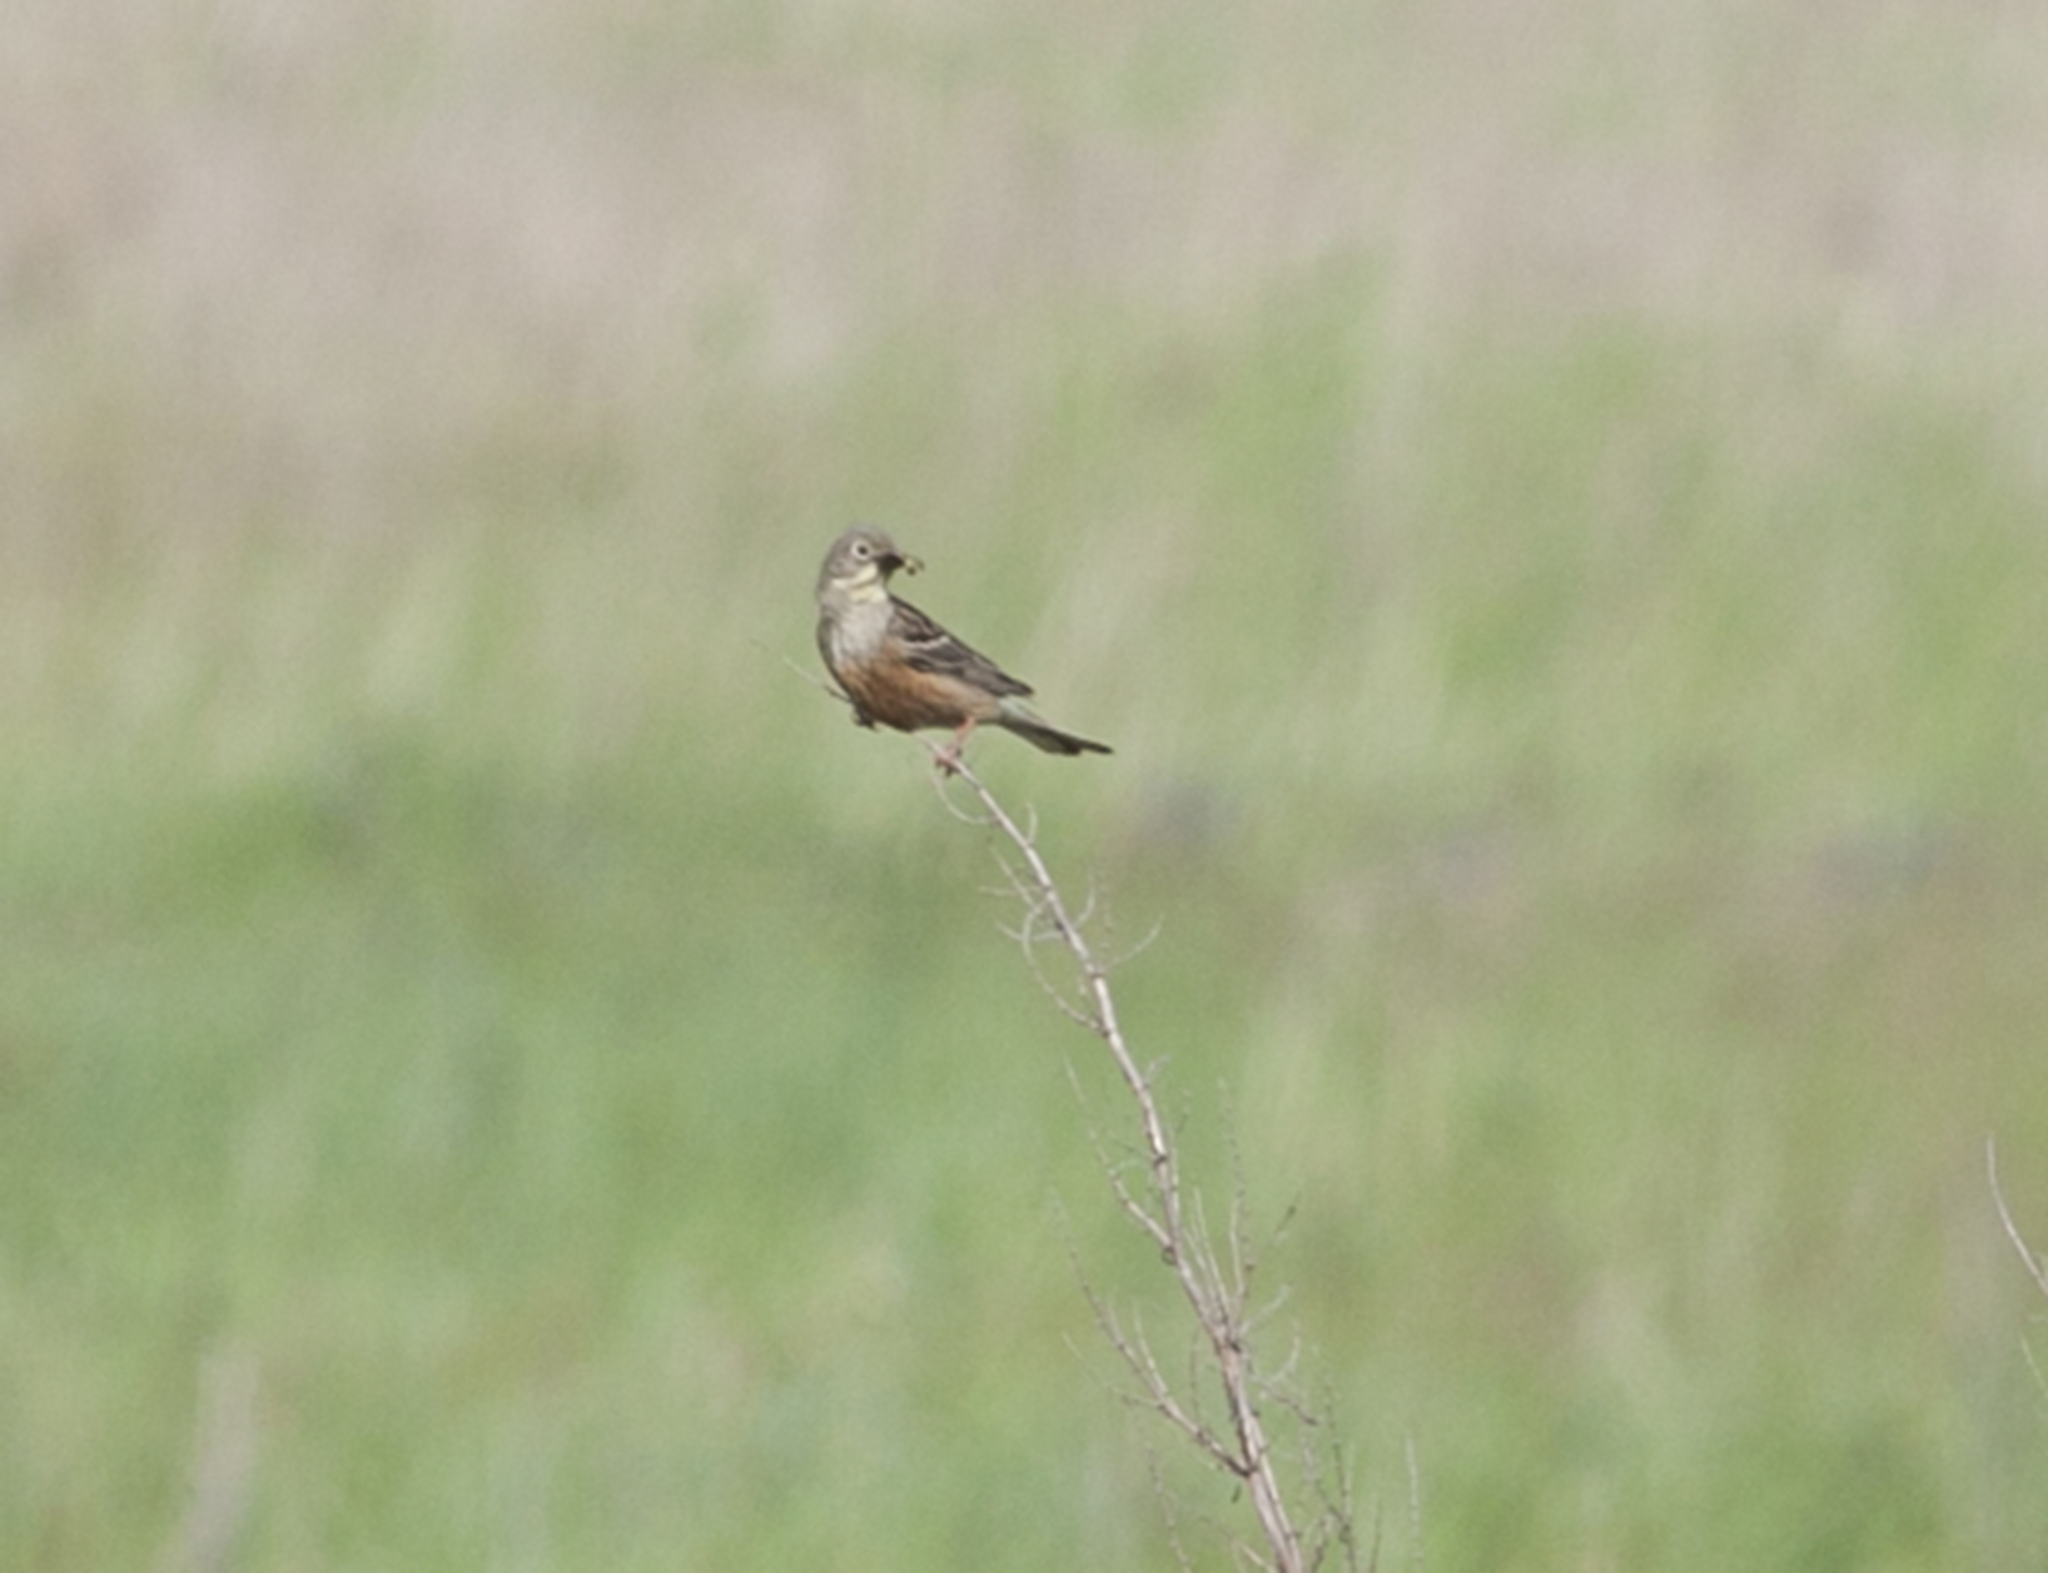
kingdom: Animalia
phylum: Chordata
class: Aves
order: Passeriformes
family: Emberizidae
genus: Emberiza
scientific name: Emberiza hortulana
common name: Ortolan bunting
